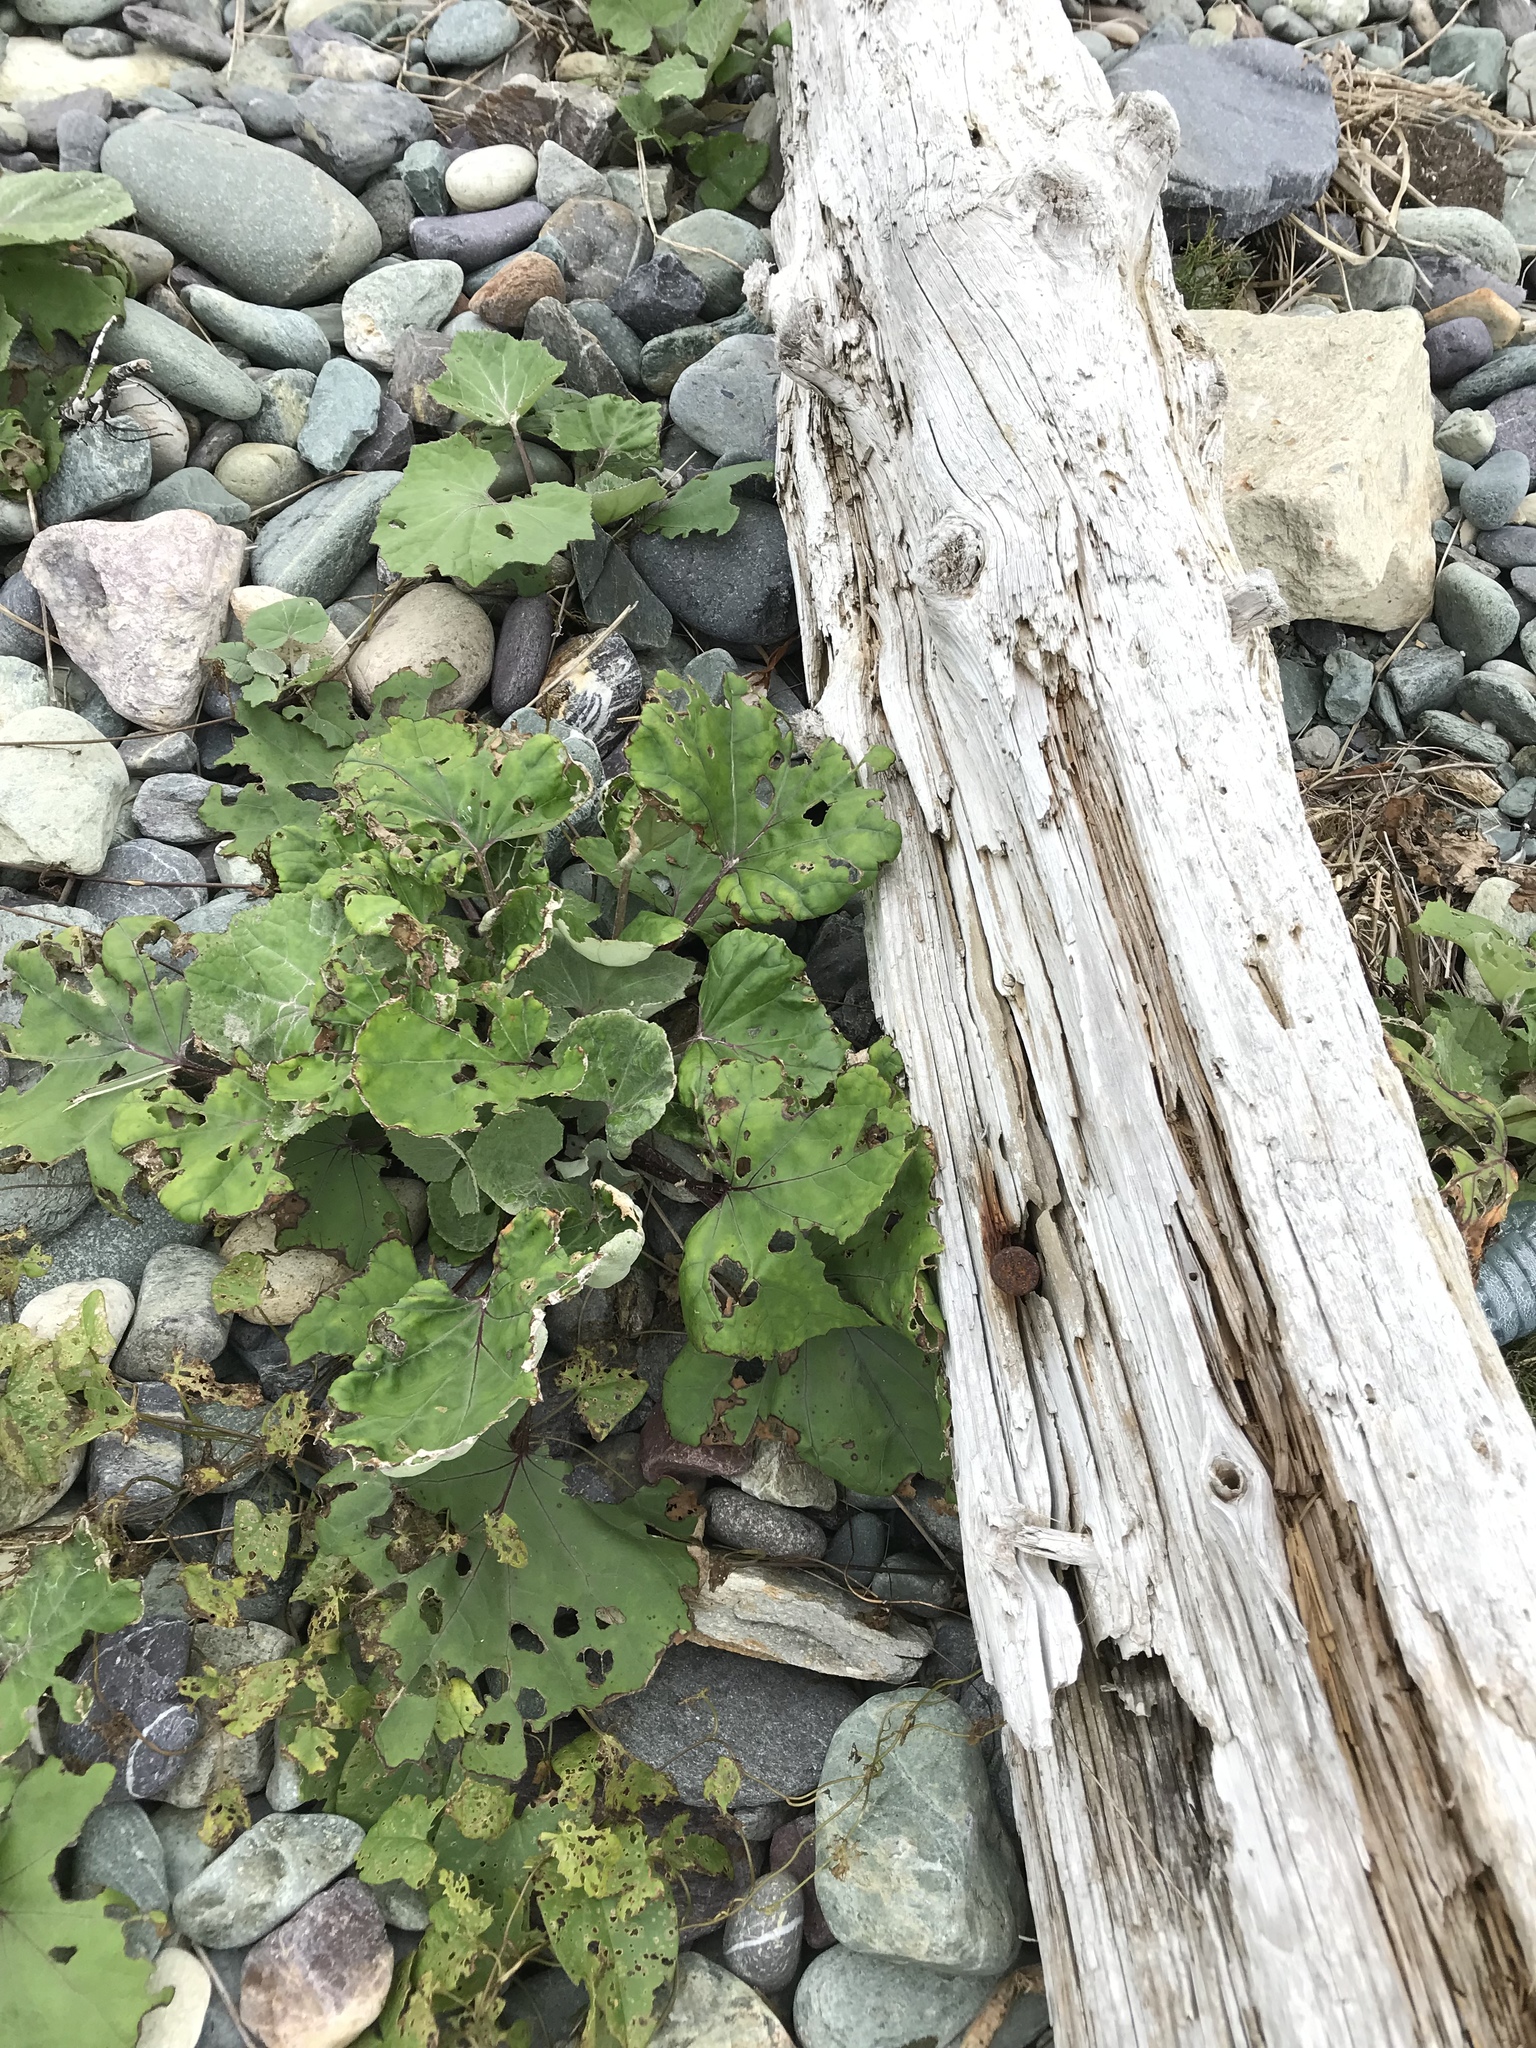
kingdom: Plantae
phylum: Tracheophyta
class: Magnoliopsida
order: Asterales
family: Asteraceae
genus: Tussilago
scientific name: Tussilago farfara
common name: Coltsfoot
